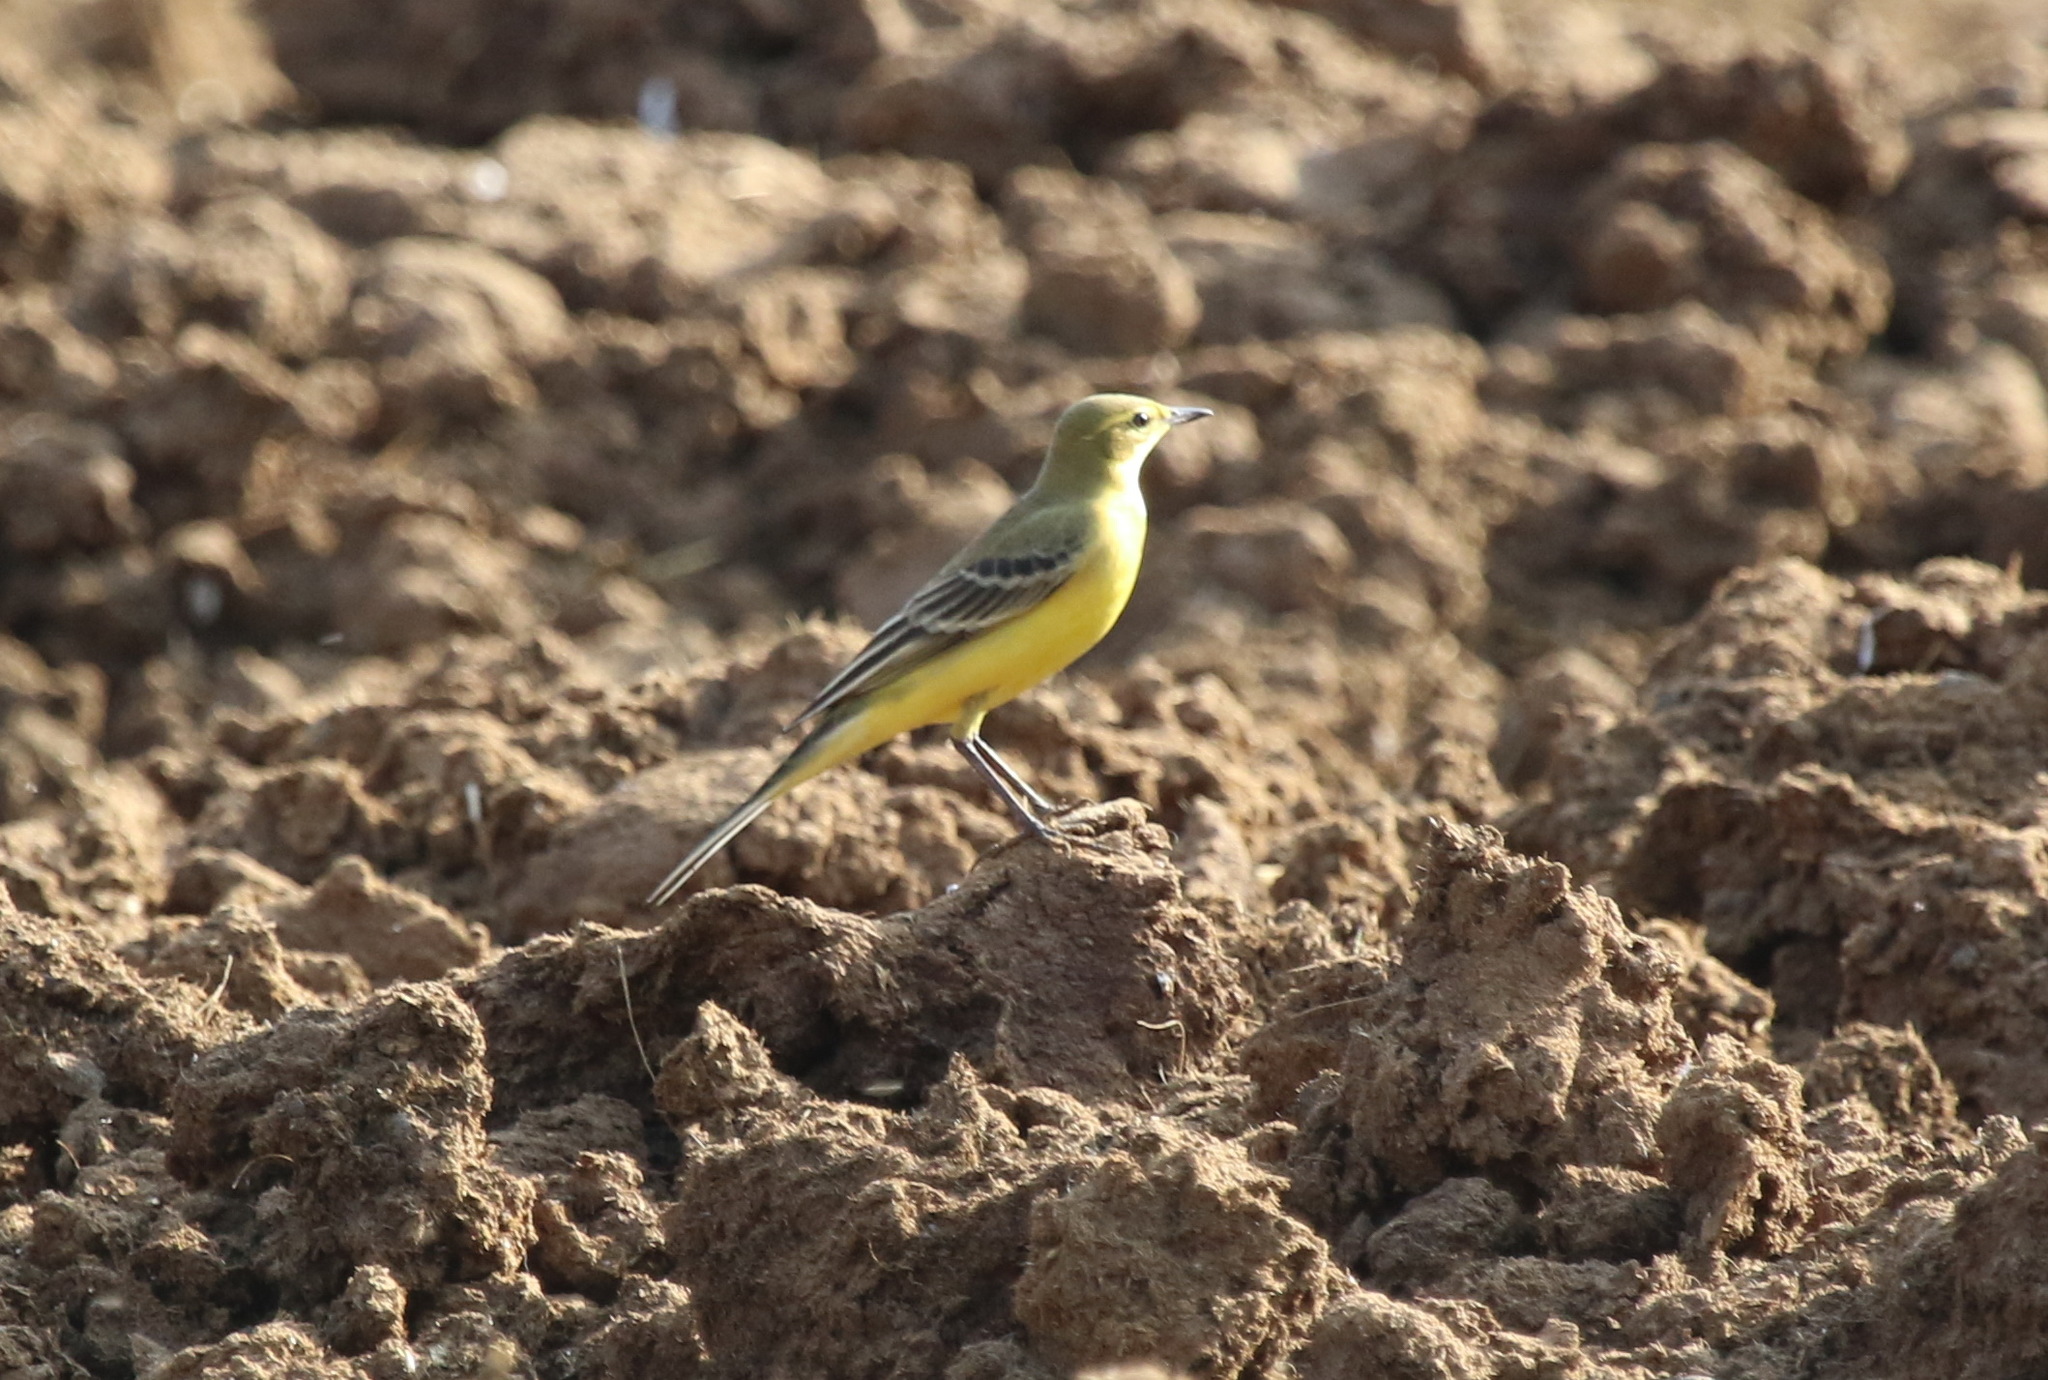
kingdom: Animalia
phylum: Chordata
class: Aves
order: Passeriformes
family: Motacillidae
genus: Motacilla
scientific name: Motacilla flava
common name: Western yellow wagtail
